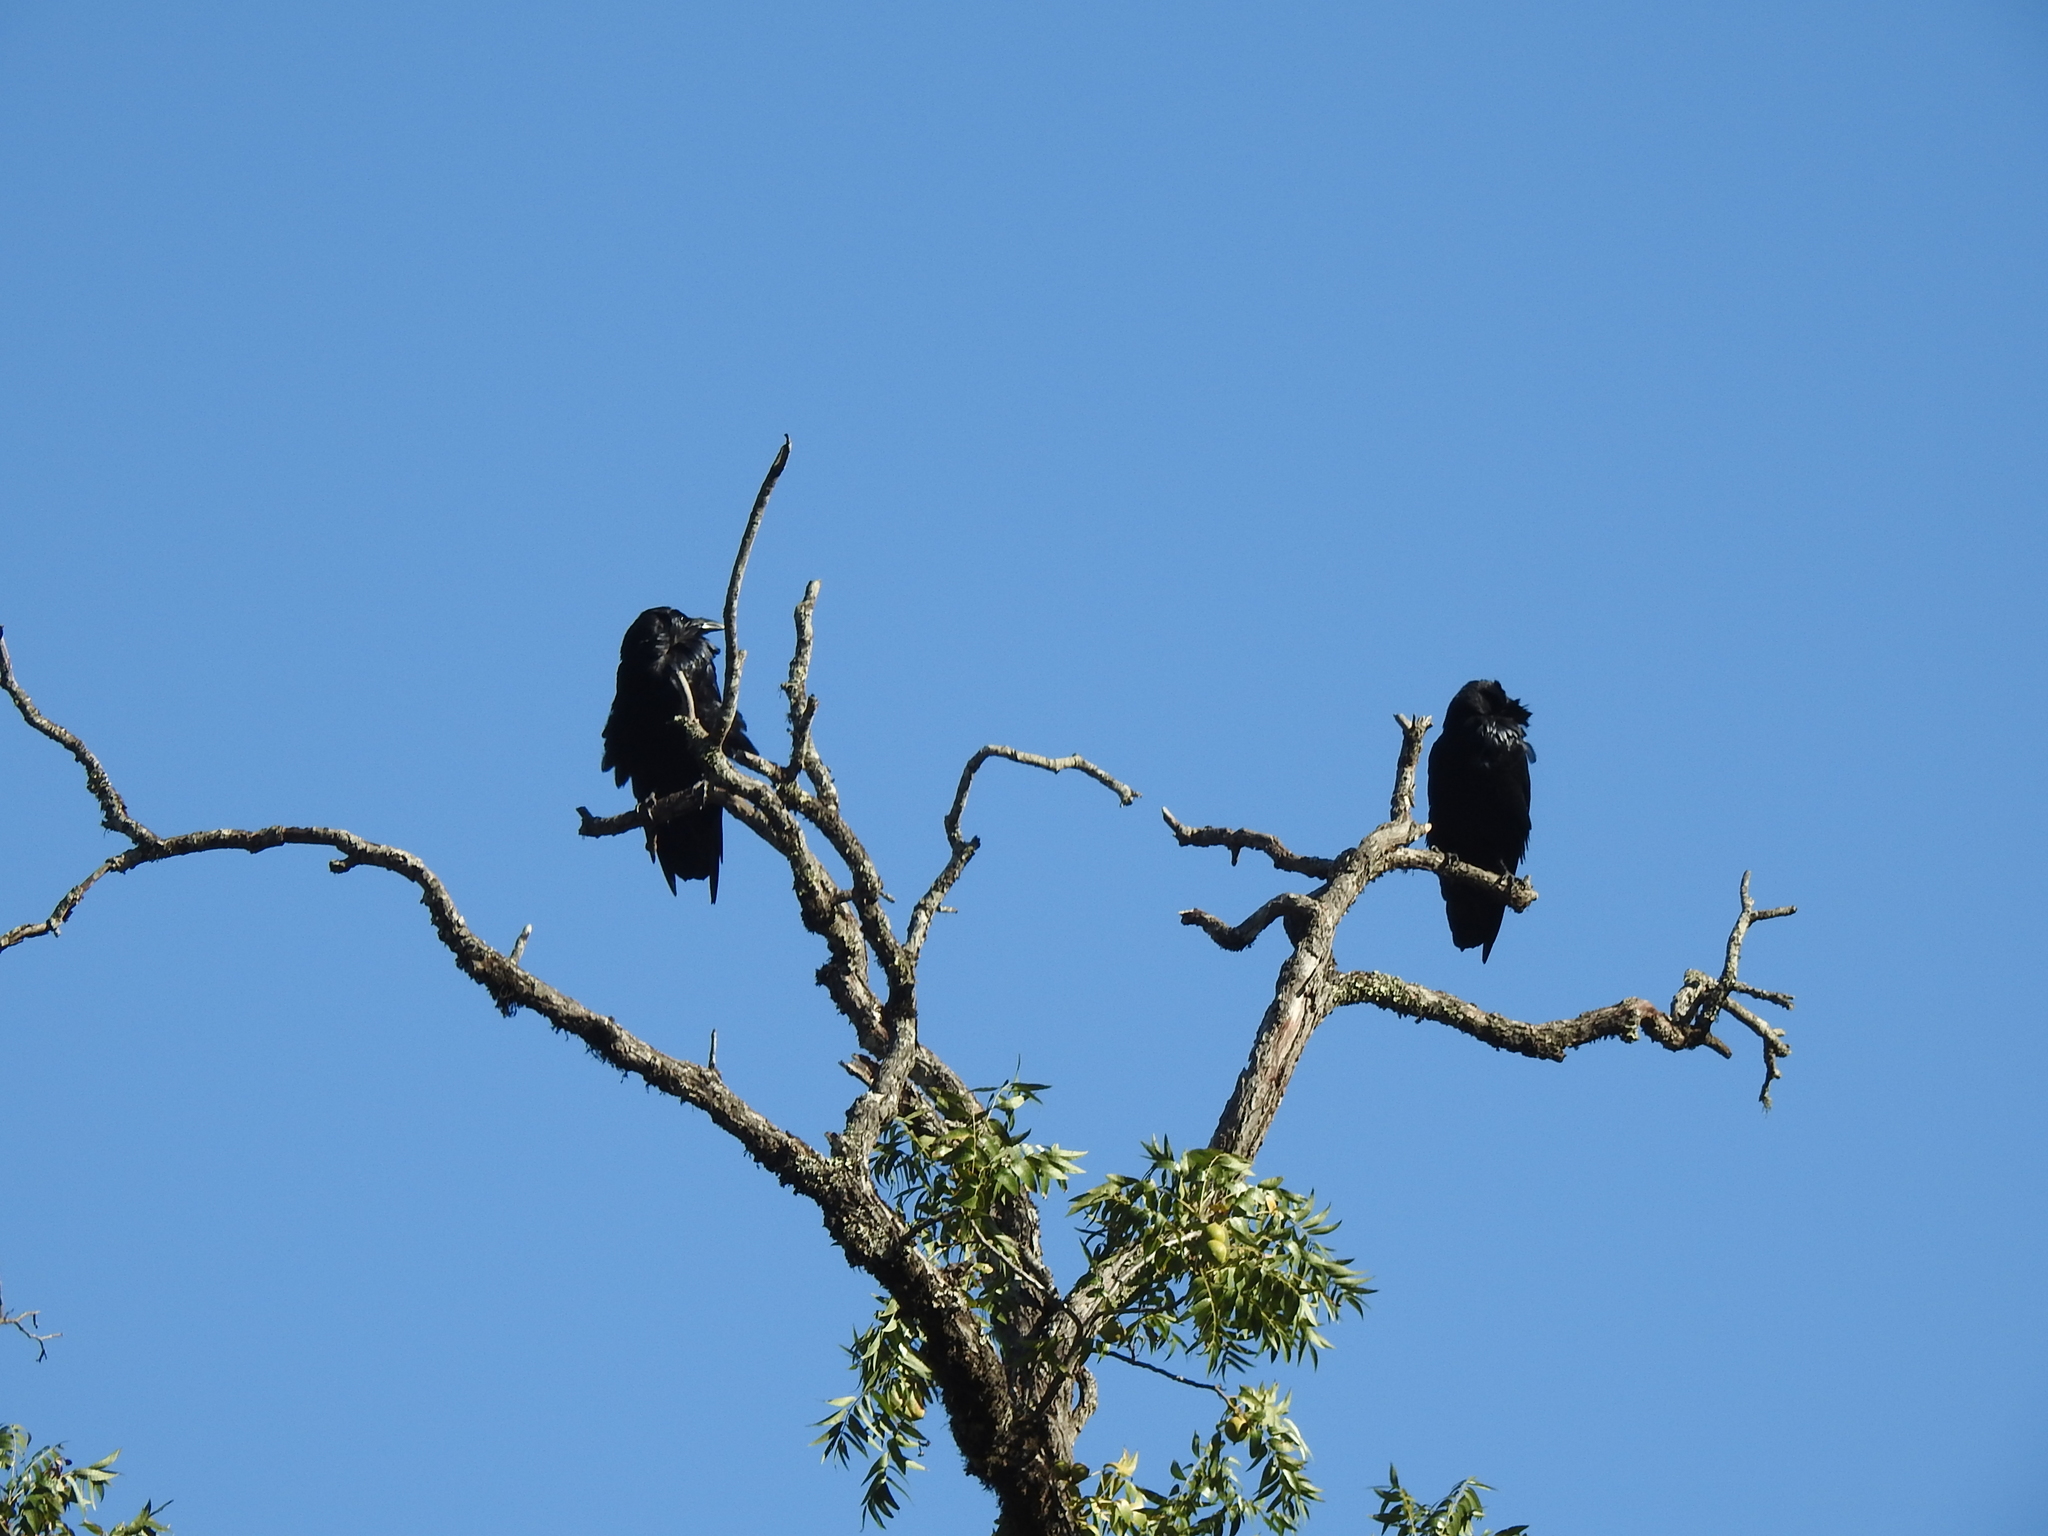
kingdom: Animalia
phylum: Chordata
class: Aves
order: Passeriformes
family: Corvidae
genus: Corvus
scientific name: Corvus corax
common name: Common raven
